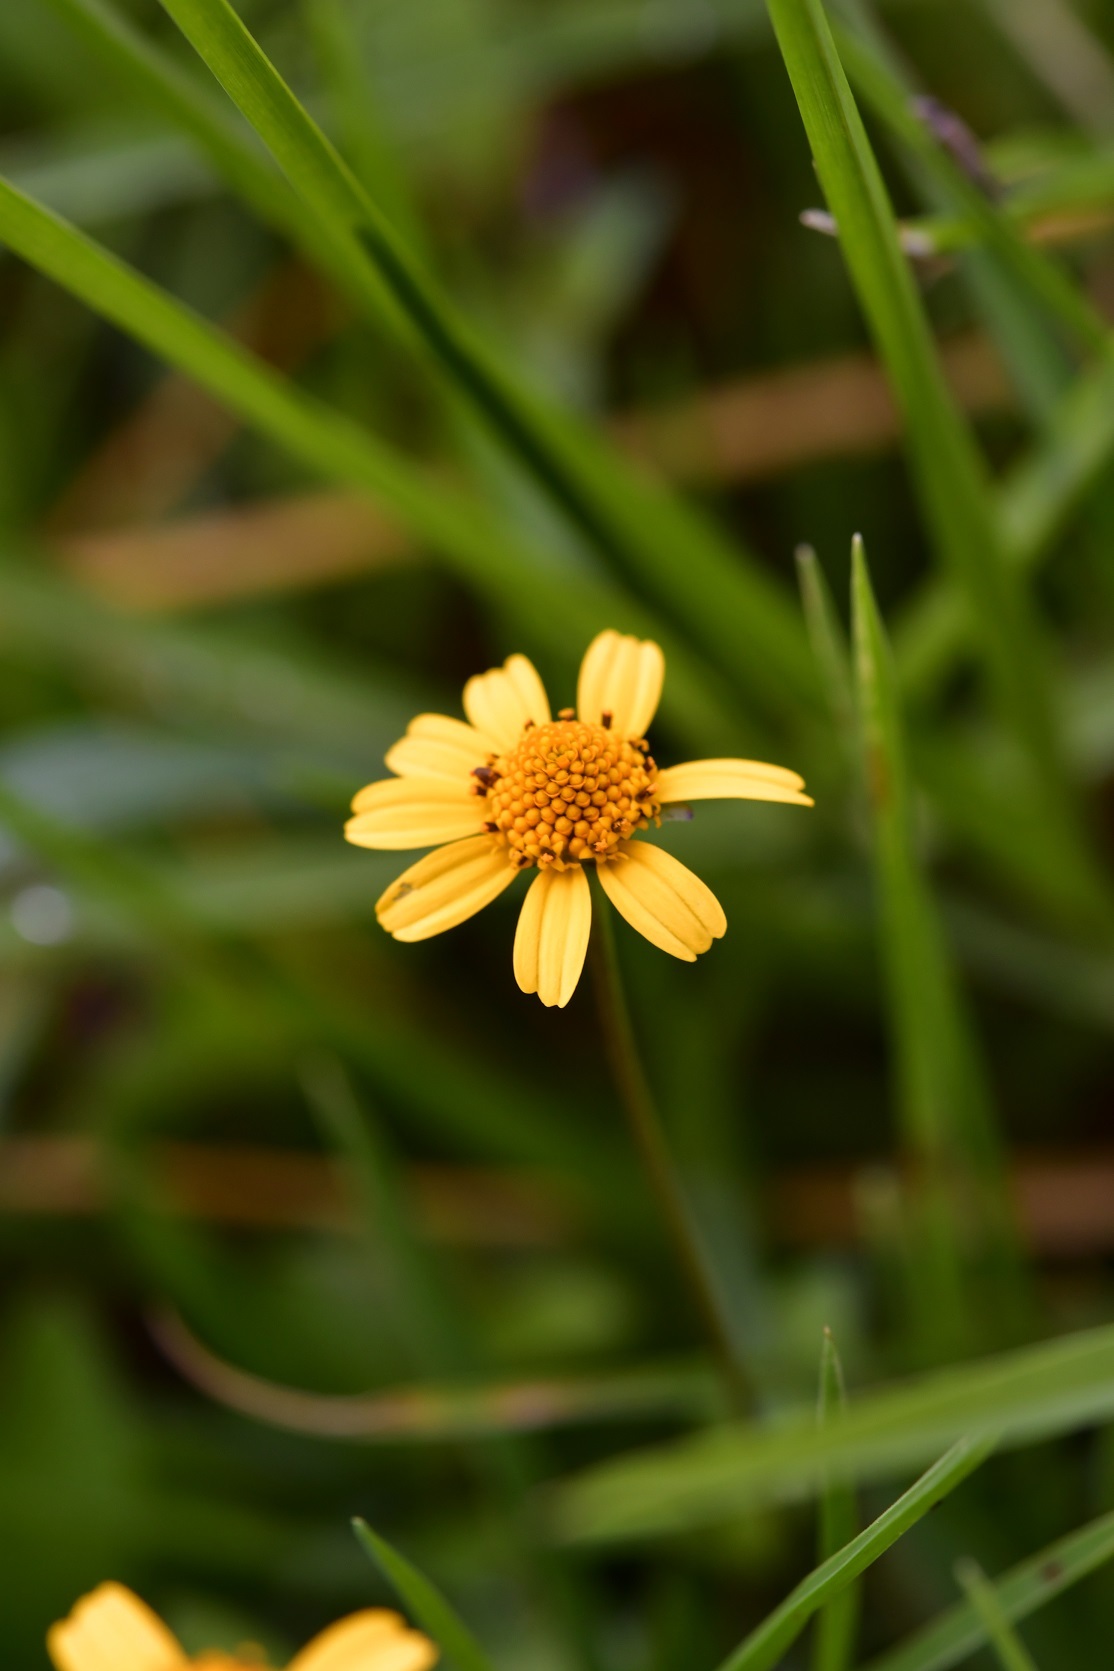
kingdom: Plantae
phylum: Tracheophyta
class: Magnoliopsida
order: Asterales
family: Asteraceae
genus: Acmella
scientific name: Acmella repens
